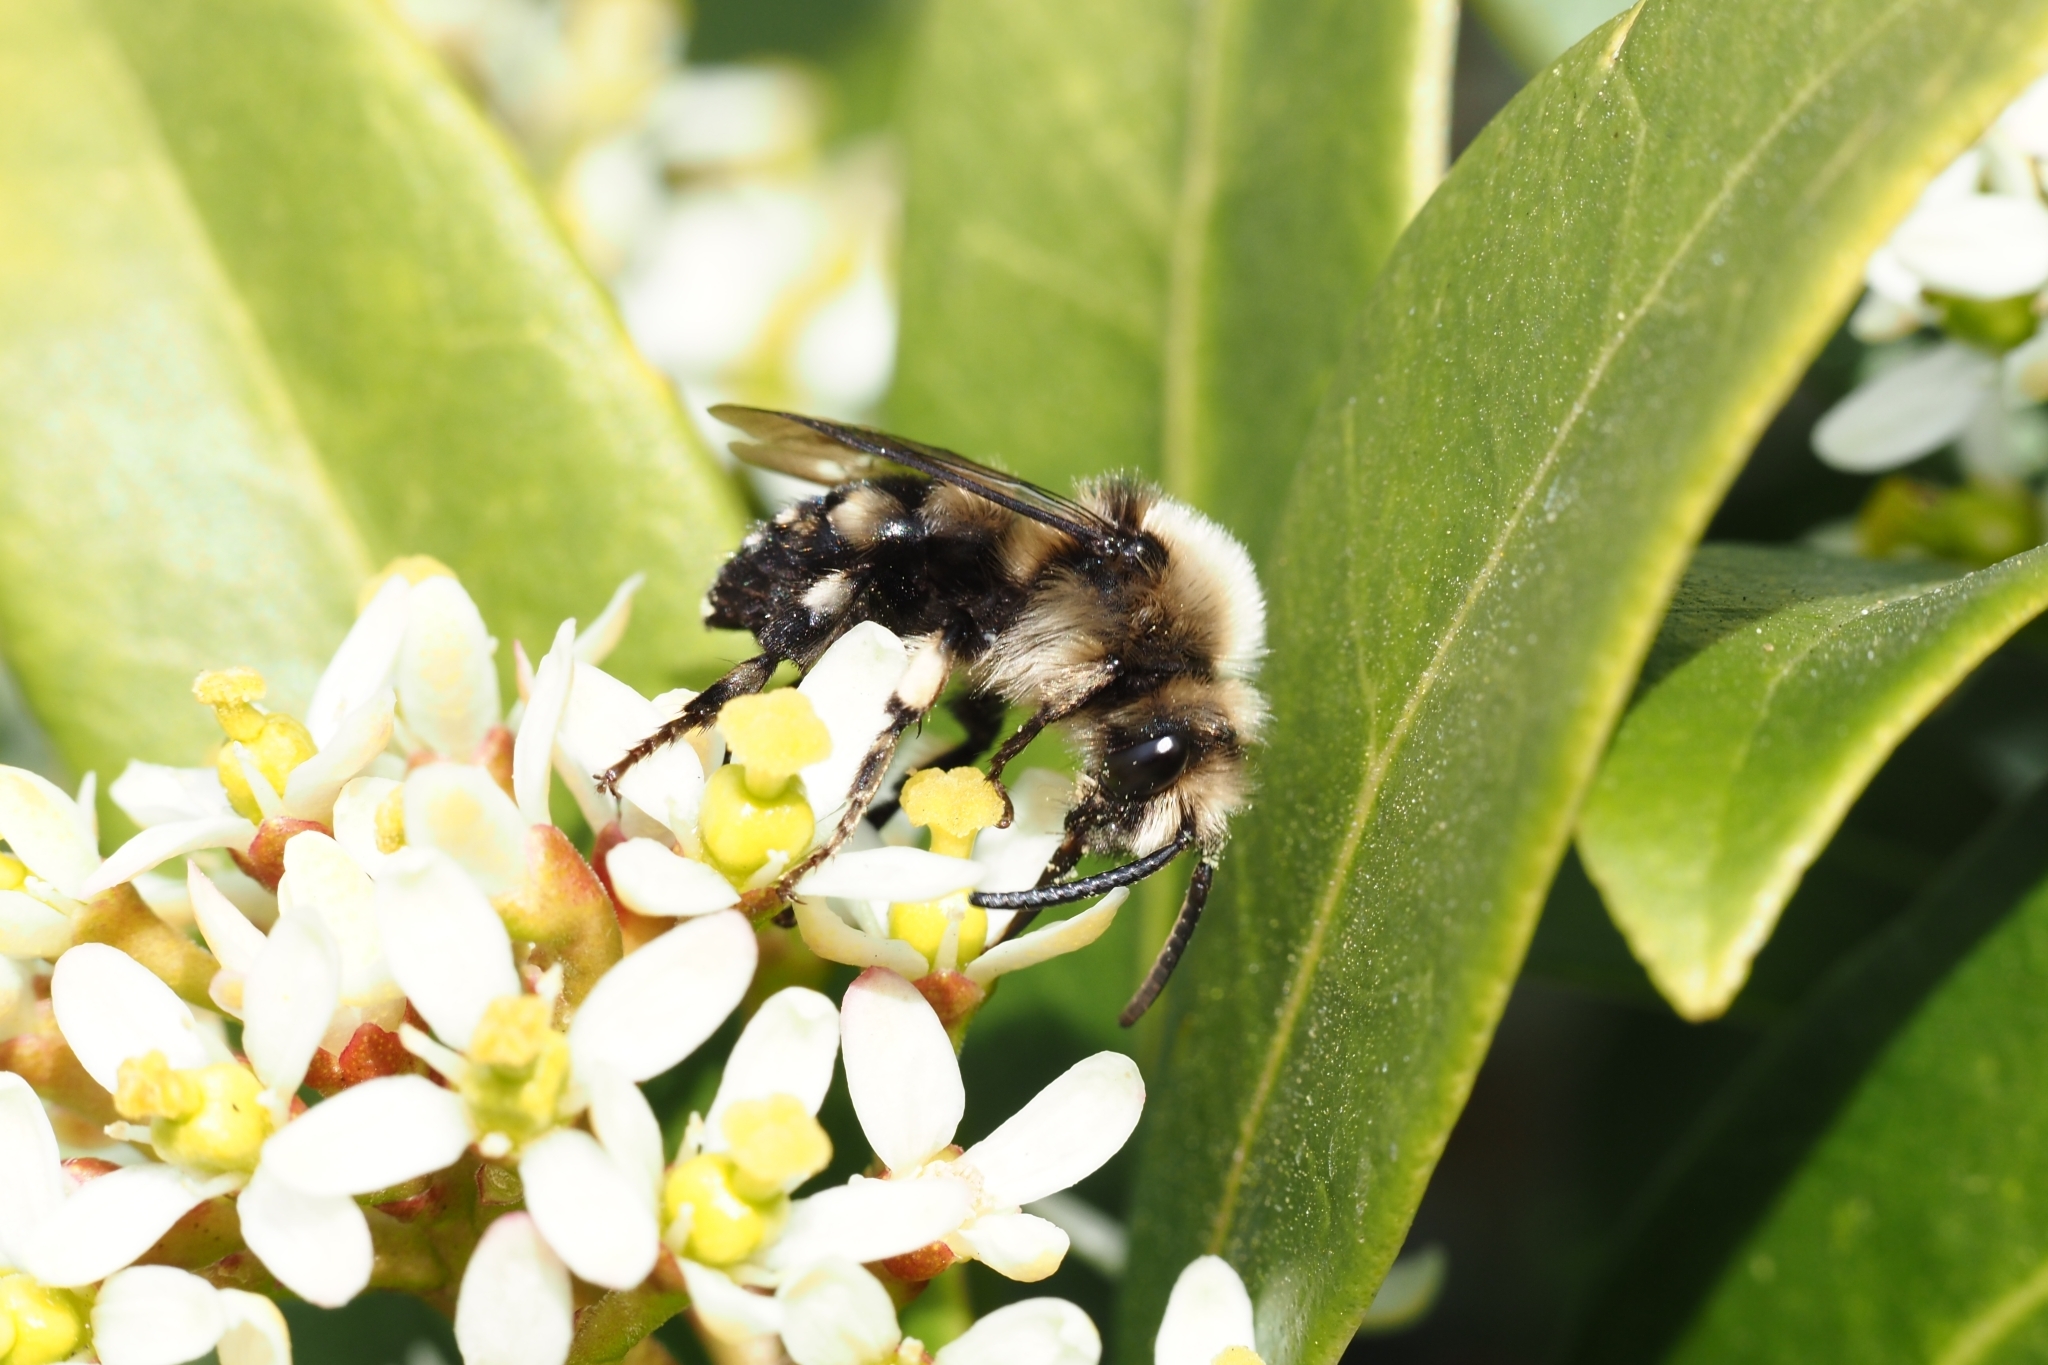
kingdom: Animalia
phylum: Arthropoda
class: Insecta
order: Hymenoptera
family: Apidae
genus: Melecta
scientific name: Melecta albifrons
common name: Common mourning bee
